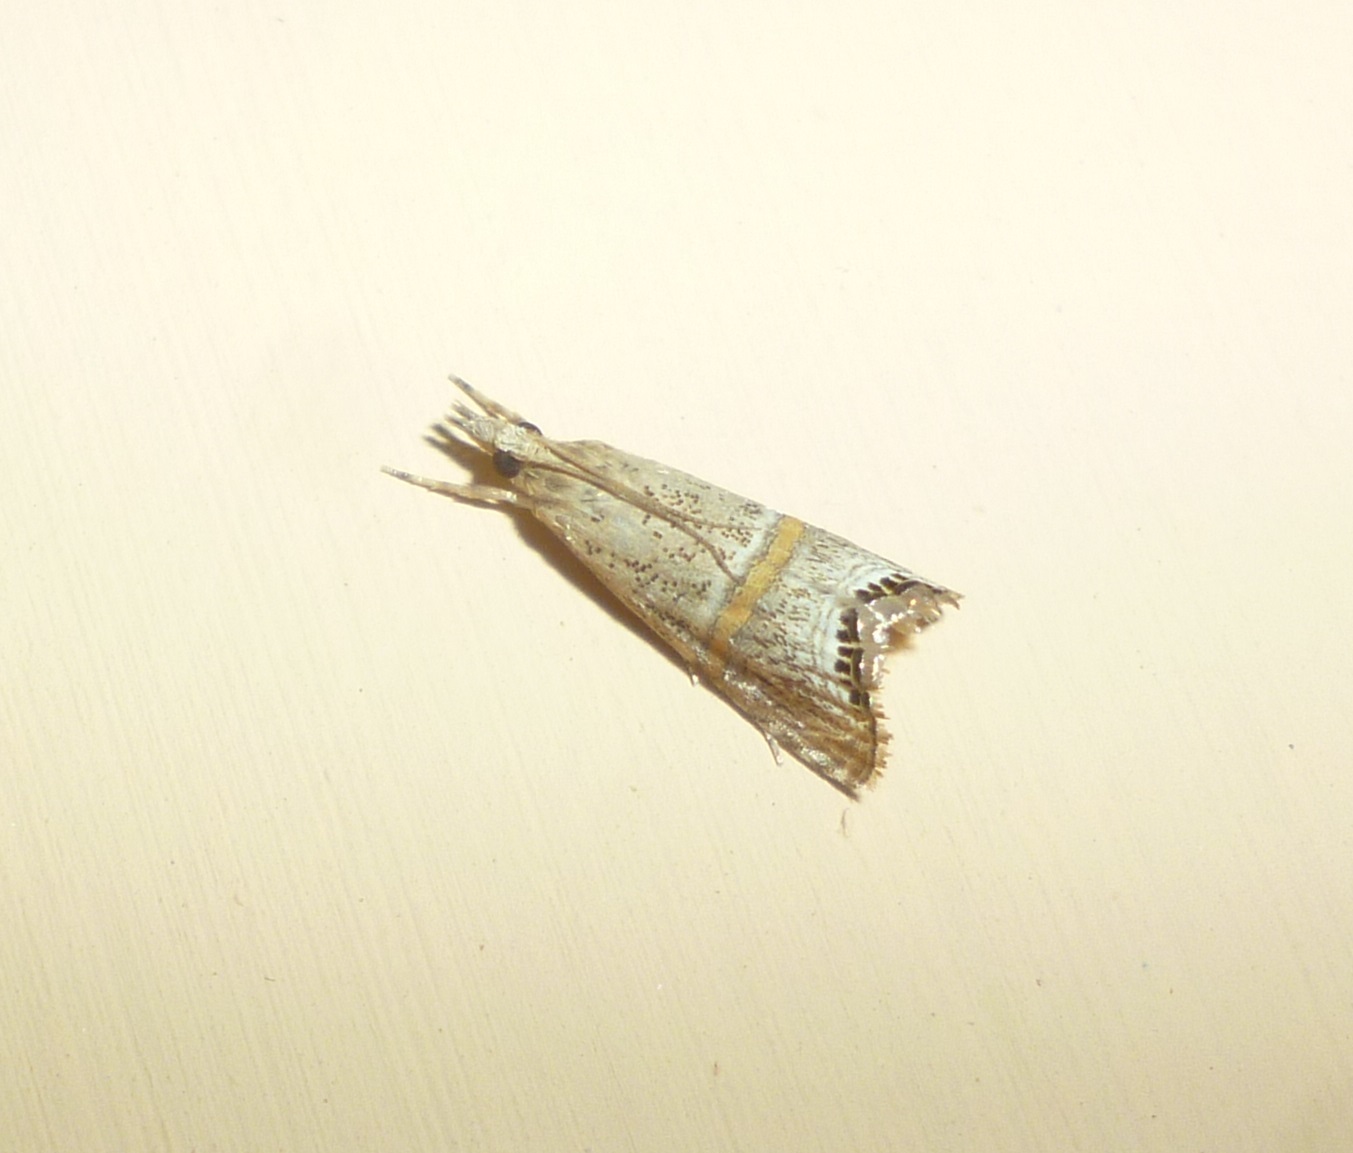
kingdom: Animalia
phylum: Arthropoda
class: Insecta
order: Lepidoptera
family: Crambidae
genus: Euchromius
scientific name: Euchromius superbella
